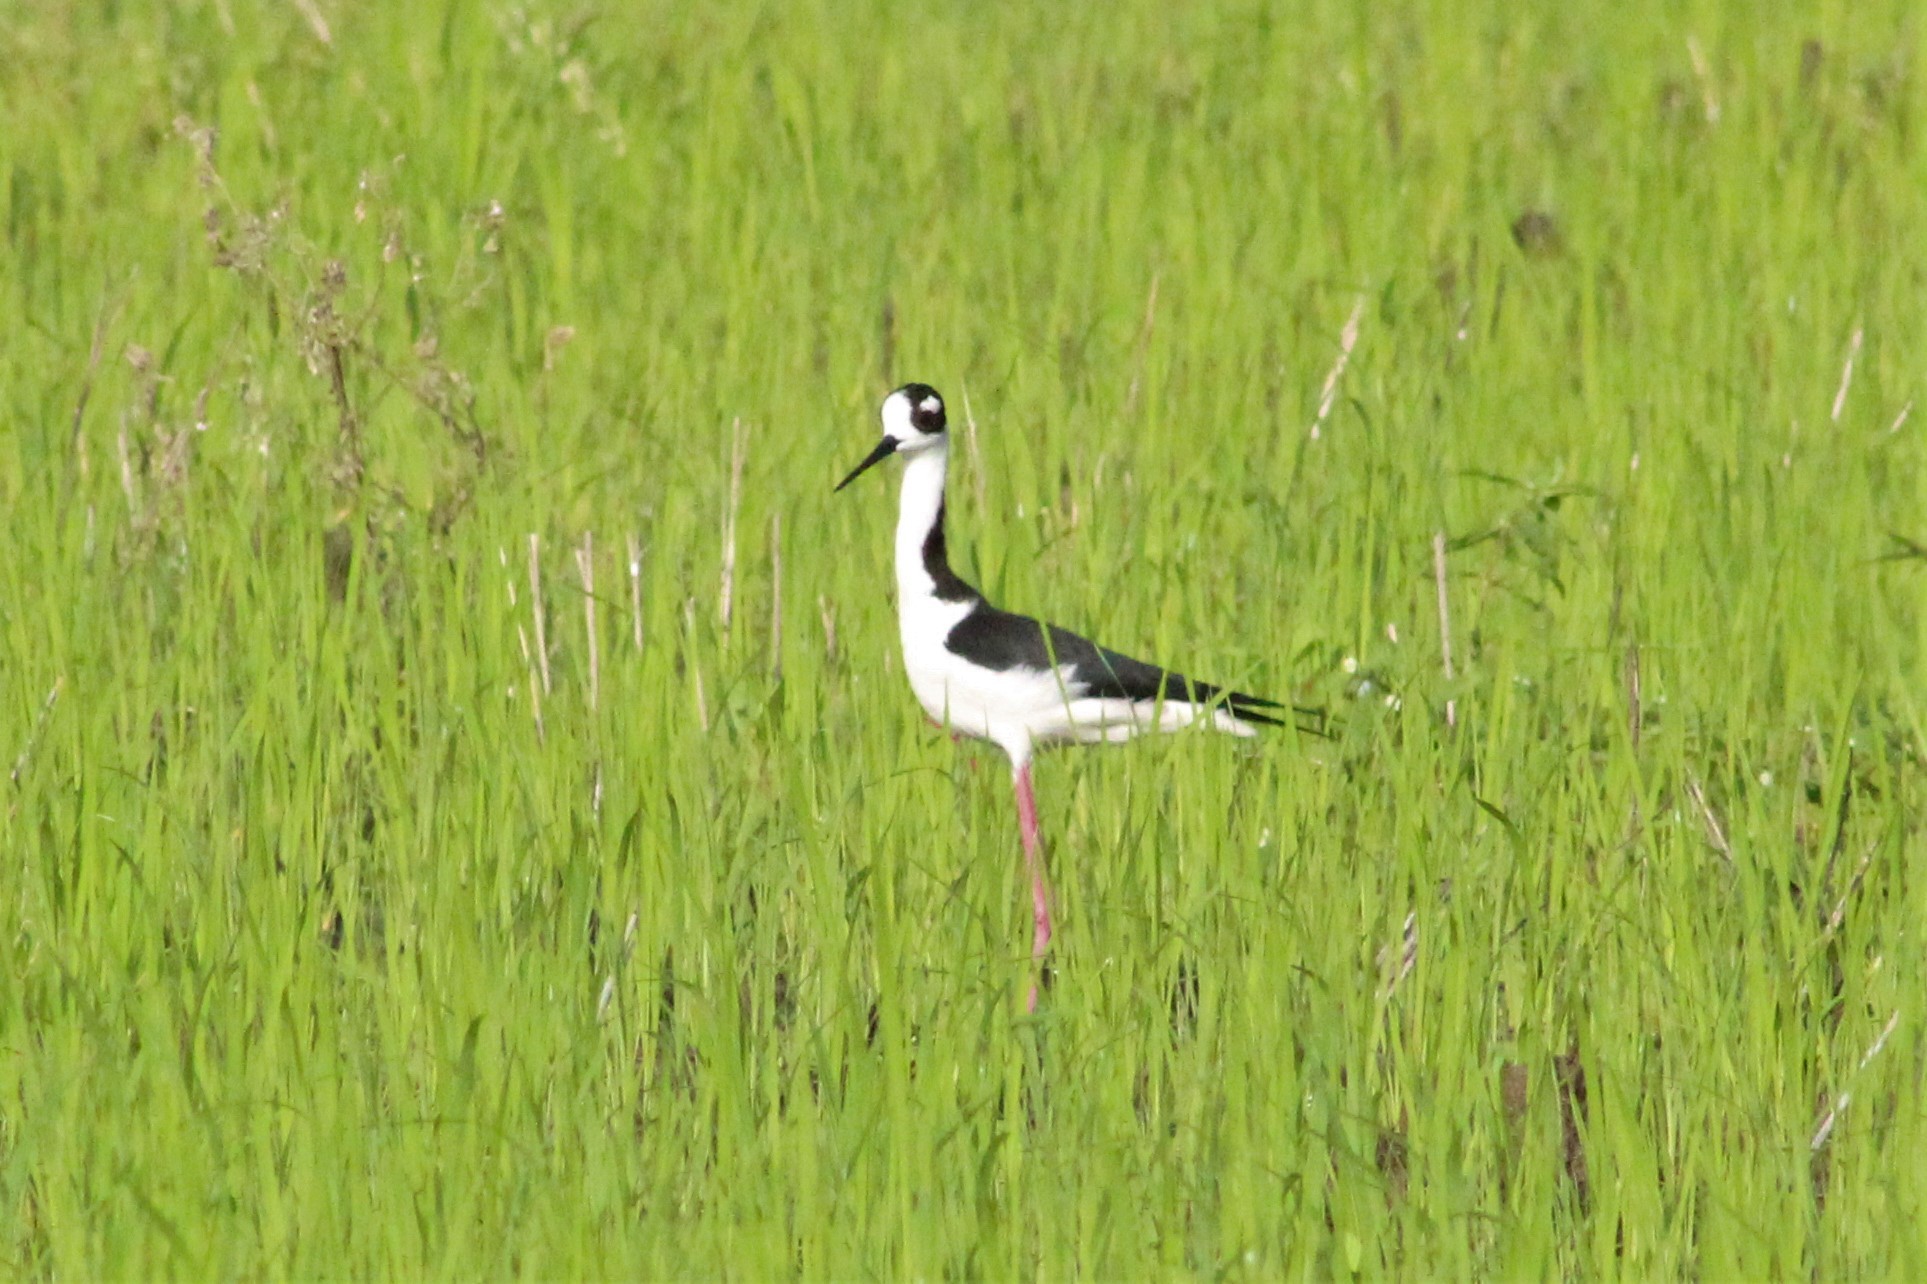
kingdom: Animalia
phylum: Chordata
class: Aves
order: Charadriiformes
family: Recurvirostridae
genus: Himantopus
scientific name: Himantopus mexicanus
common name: Black-necked stilt
